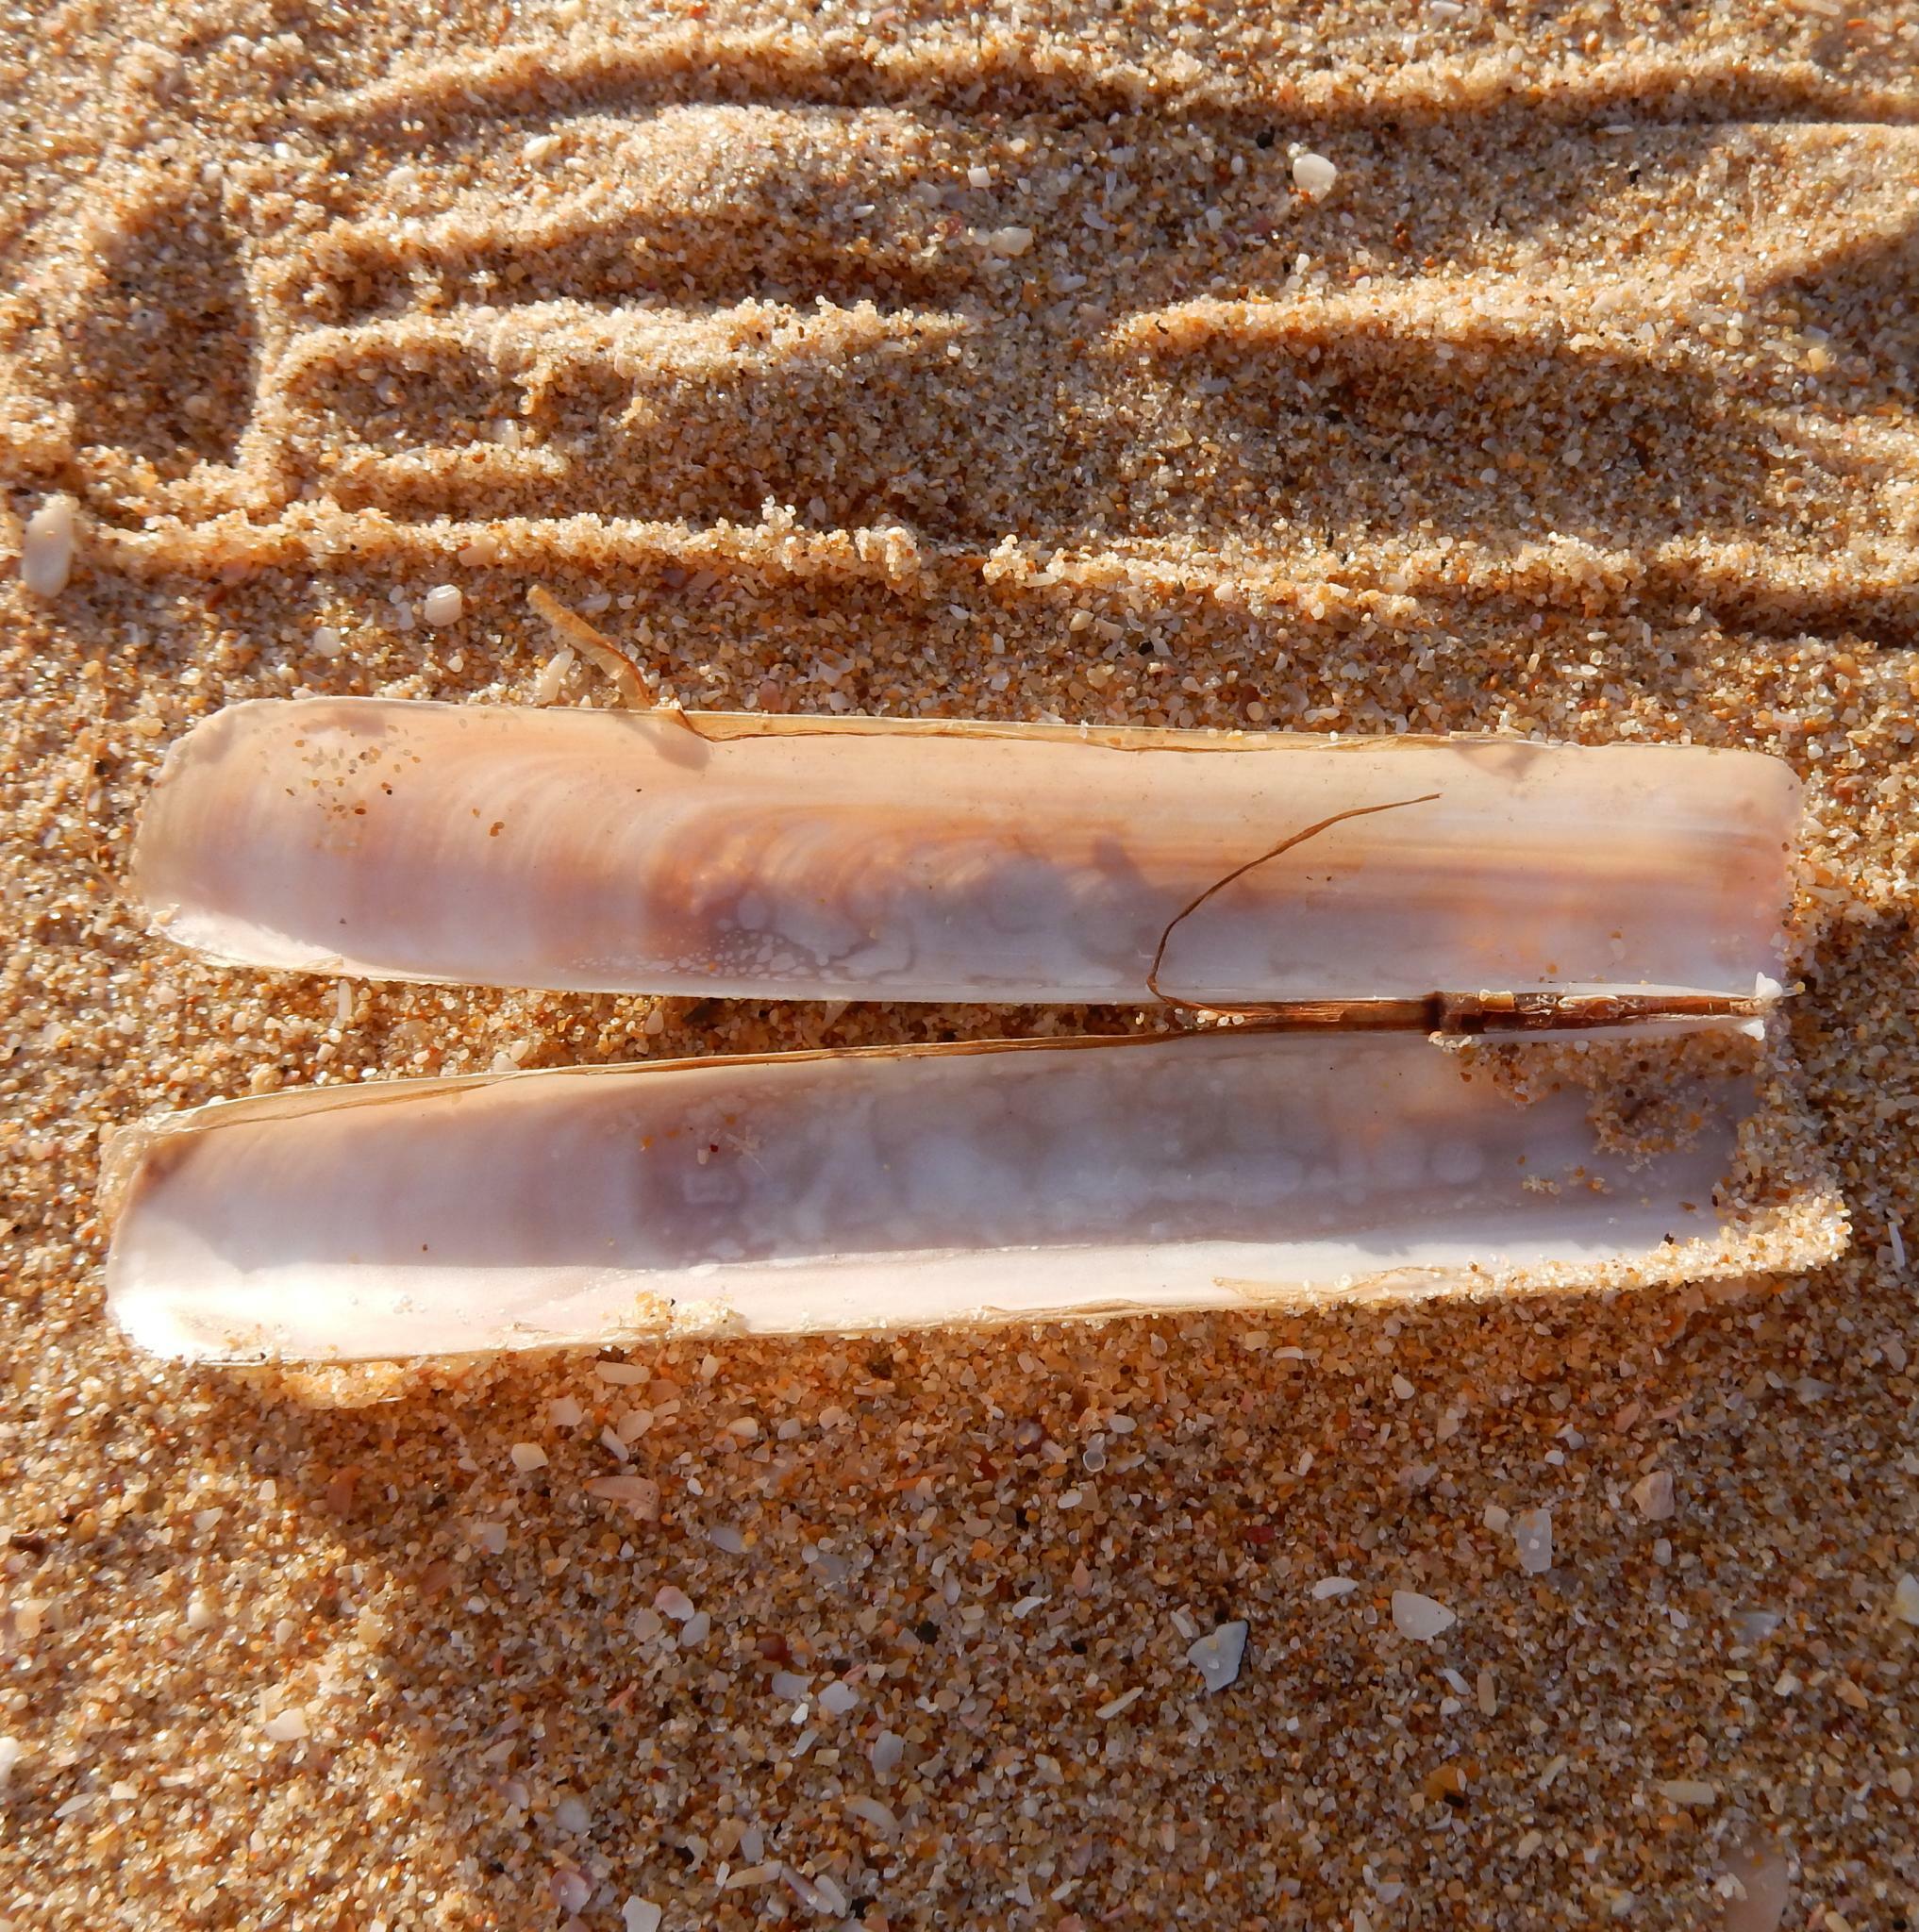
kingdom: Animalia
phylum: Mollusca
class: Bivalvia
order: Adapedonta
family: Solenidae
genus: Solen
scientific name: Solen capensis
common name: Pencil bait
